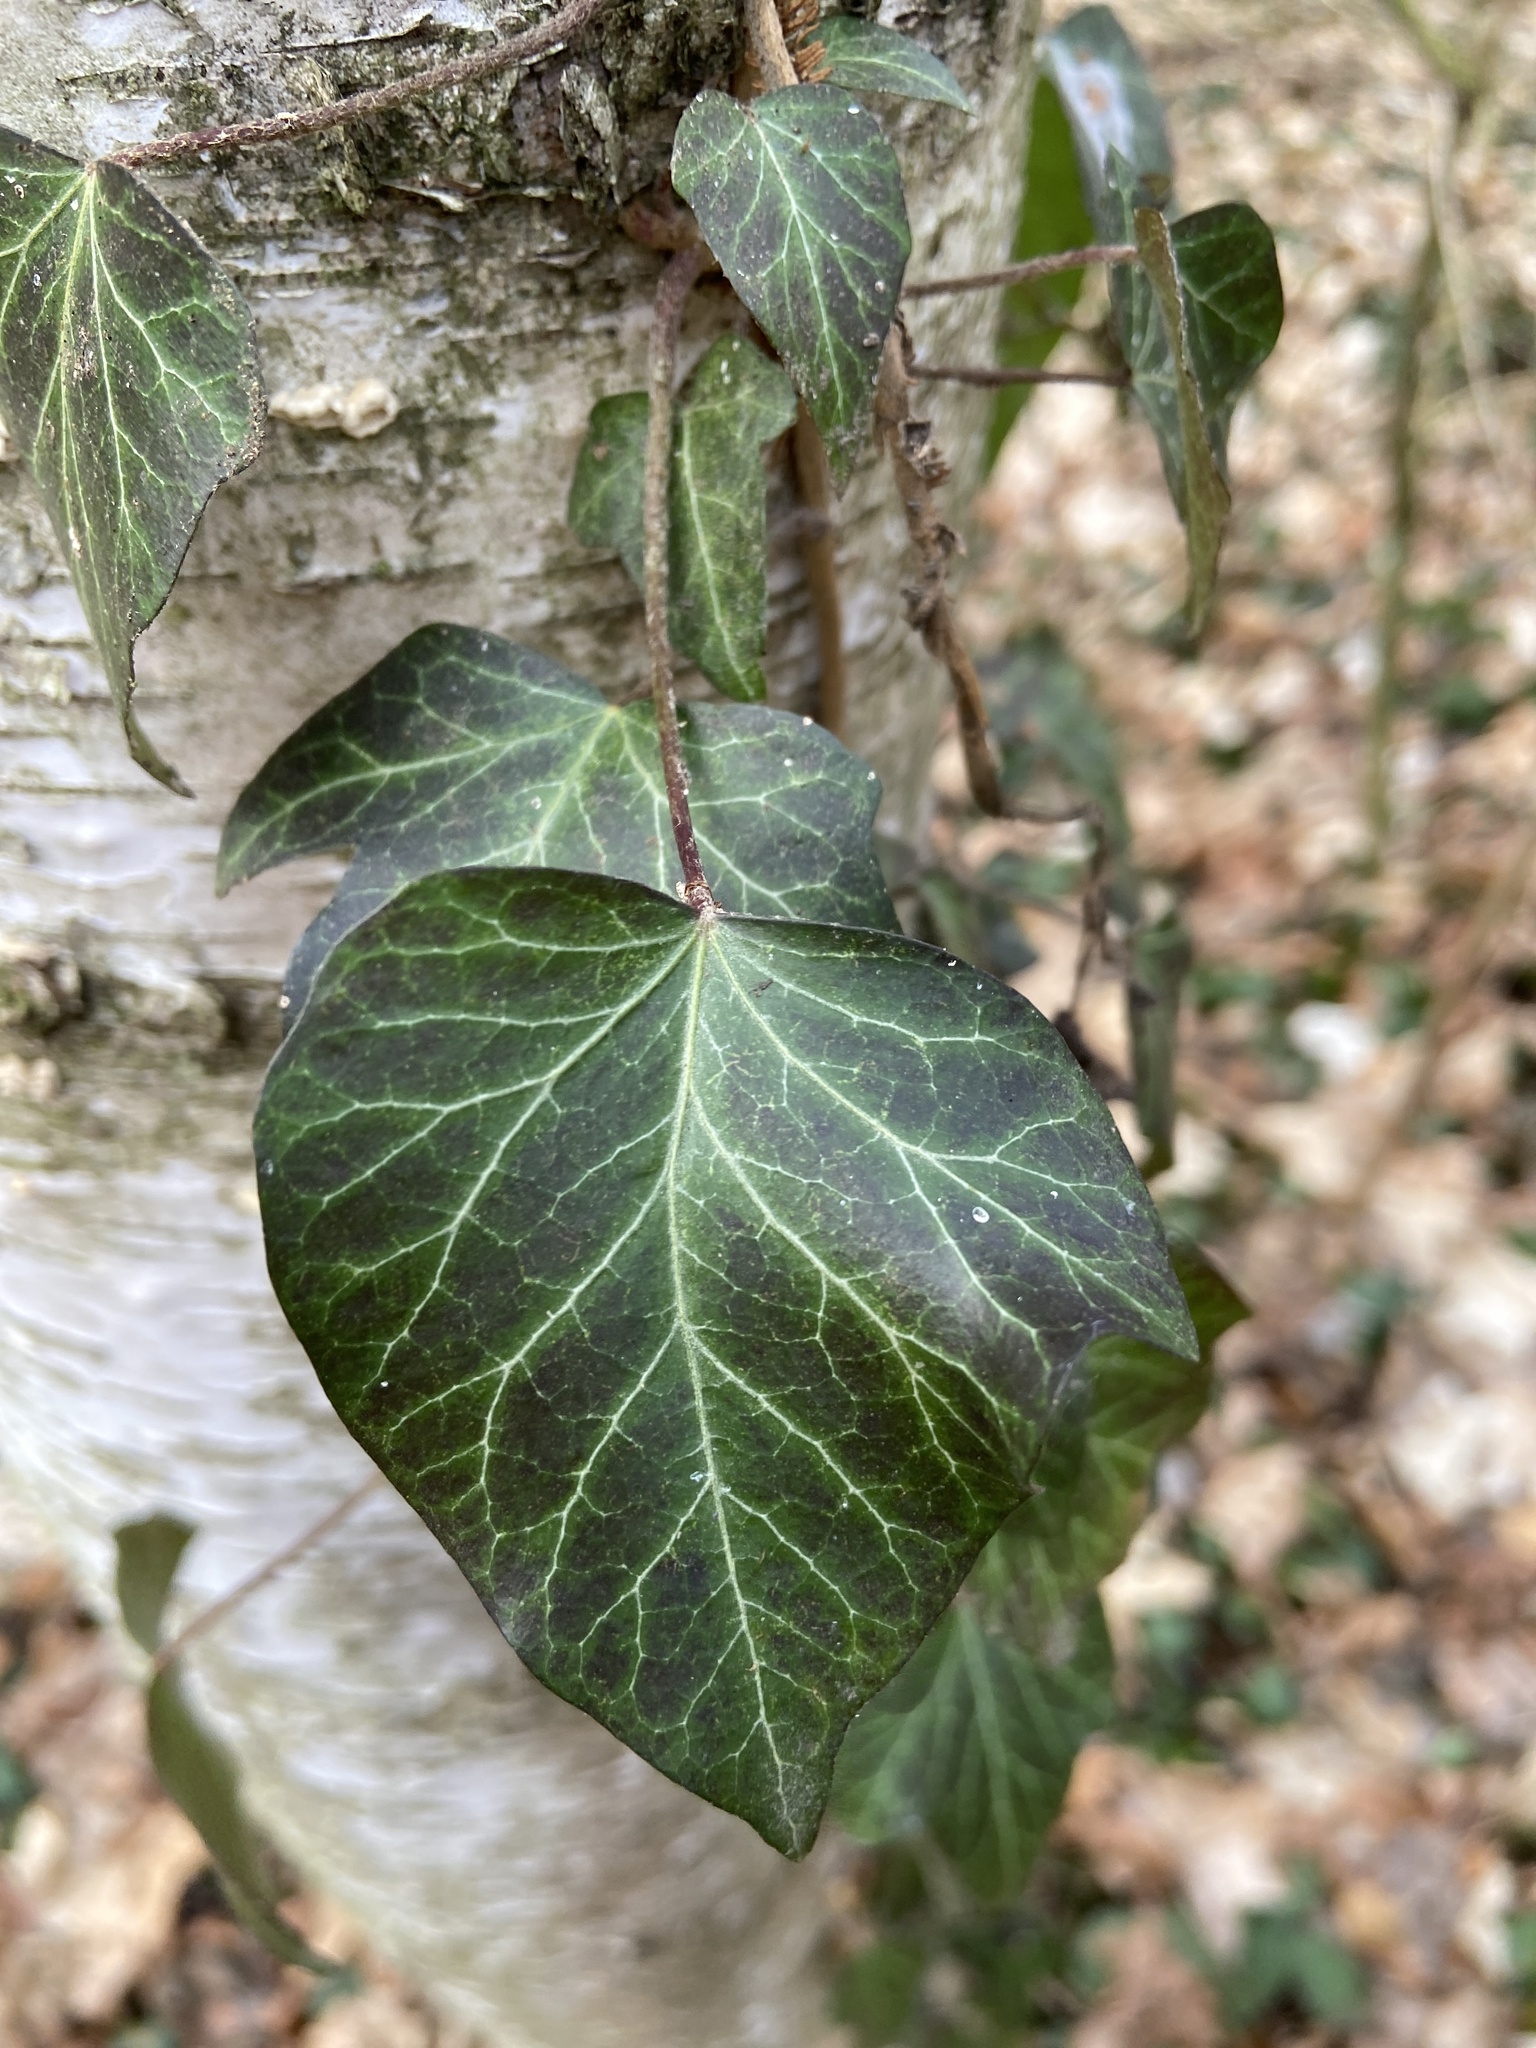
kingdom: Plantae
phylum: Tracheophyta
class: Magnoliopsida
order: Apiales
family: Araliaceae
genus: Hedera
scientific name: Hedera helix
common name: Ivy
